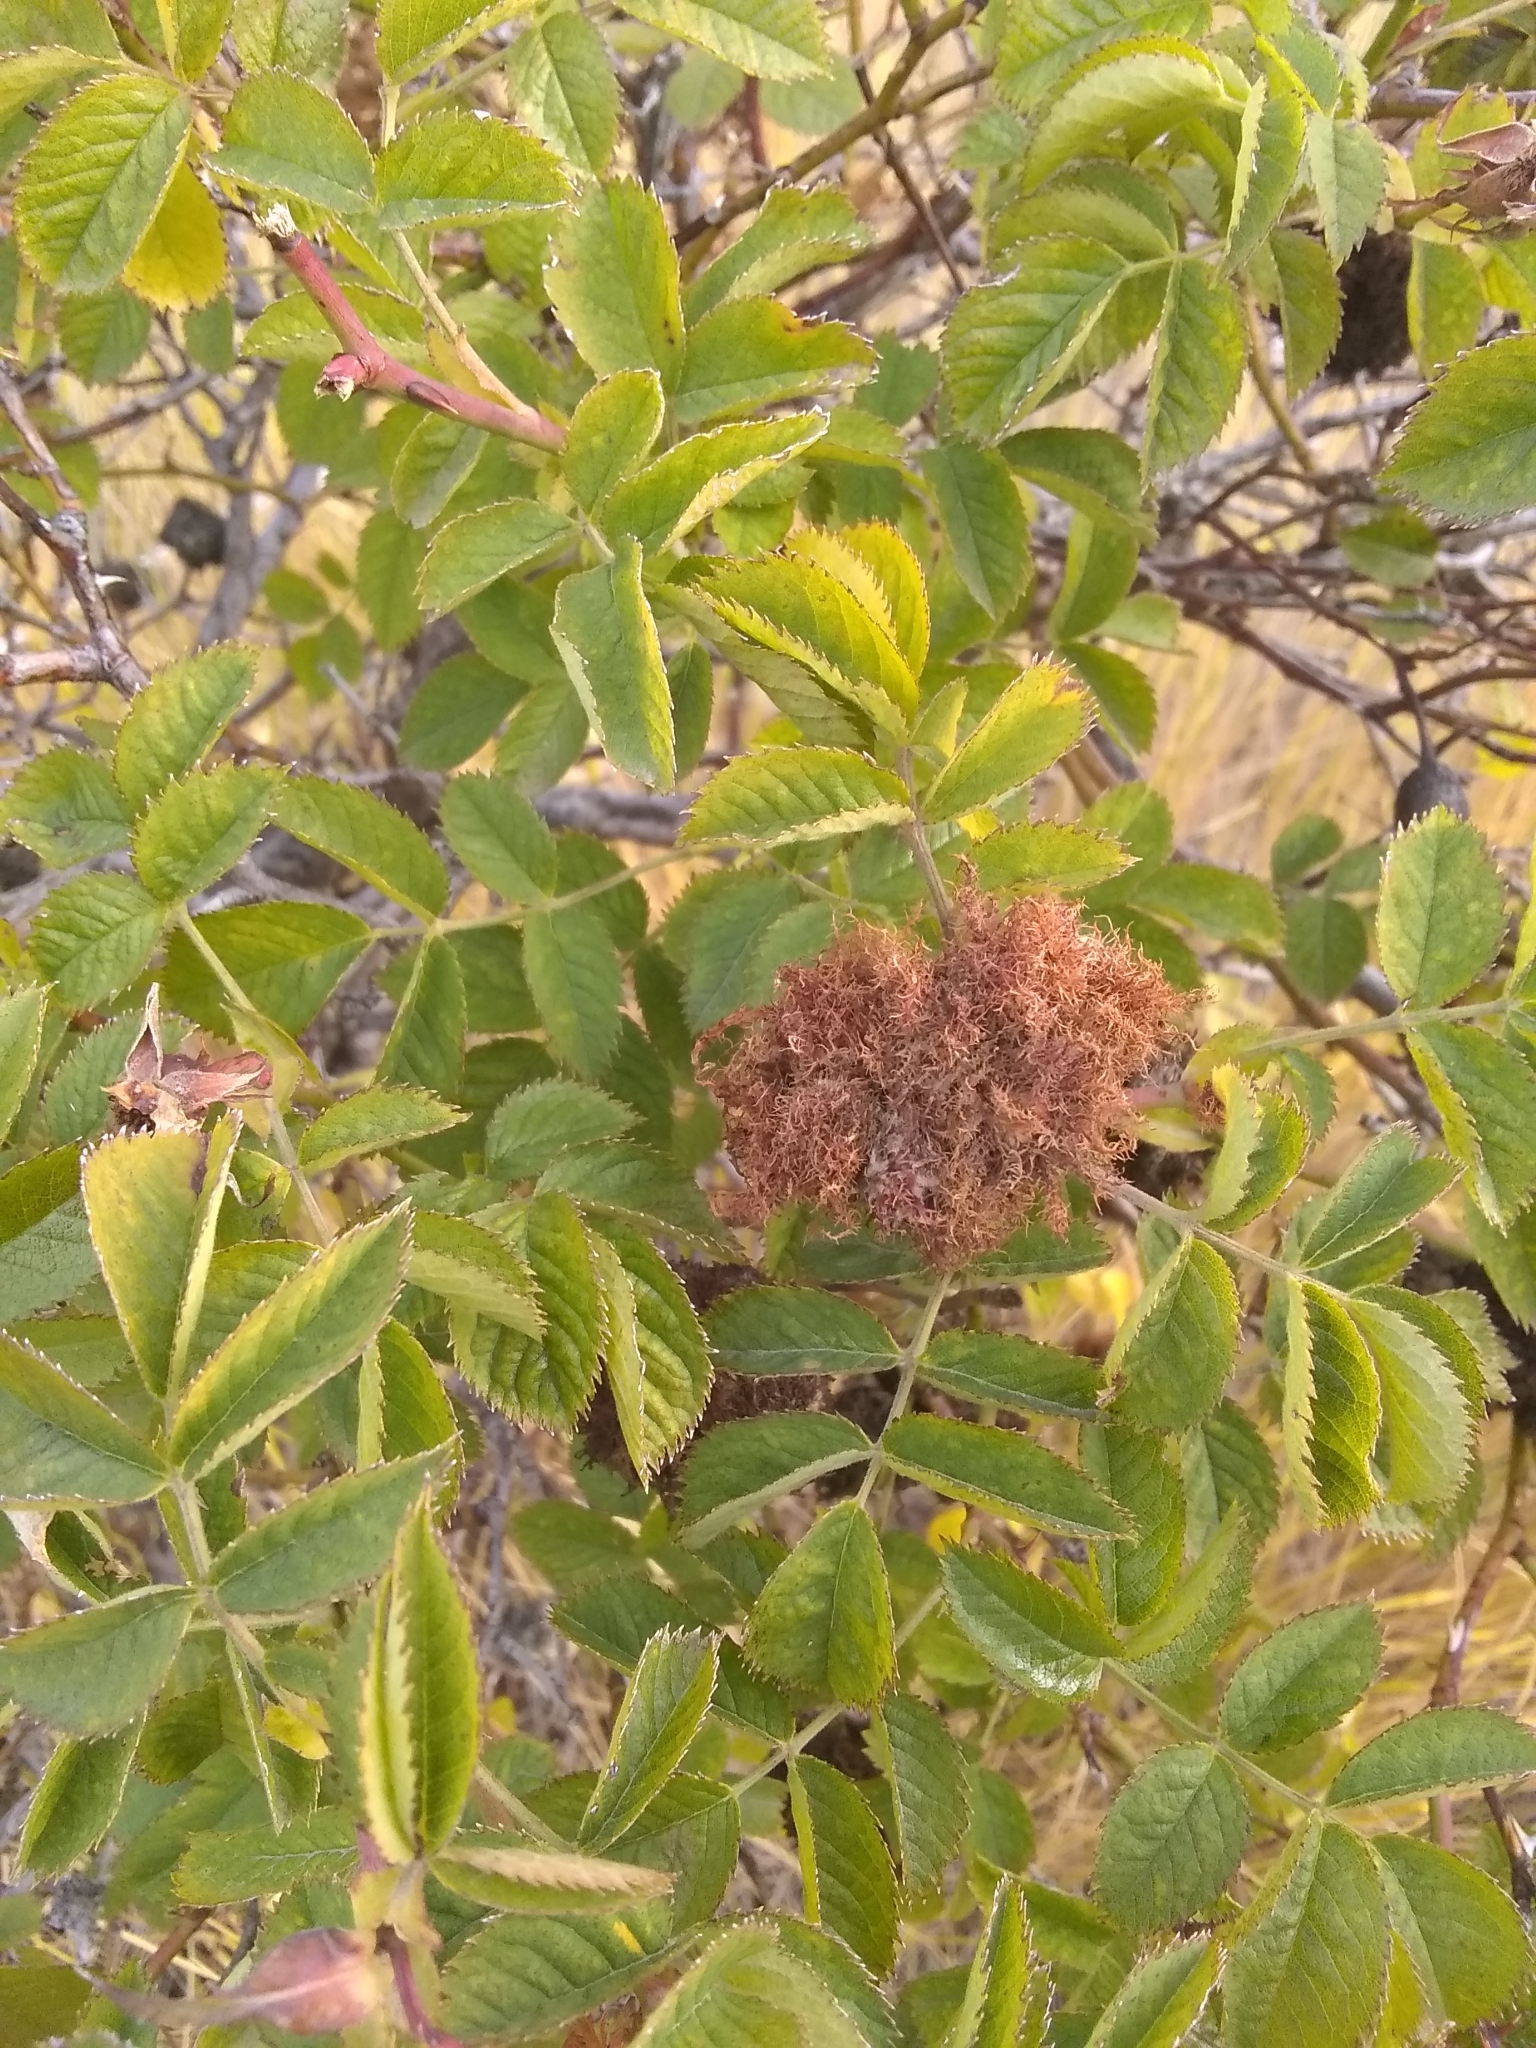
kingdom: Animalia
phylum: Arthropoda
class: Insecta
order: Hymenoptera
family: Cynipidae
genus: Diplolepis
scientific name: Diplolepis rosae
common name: Bedeguar gall
